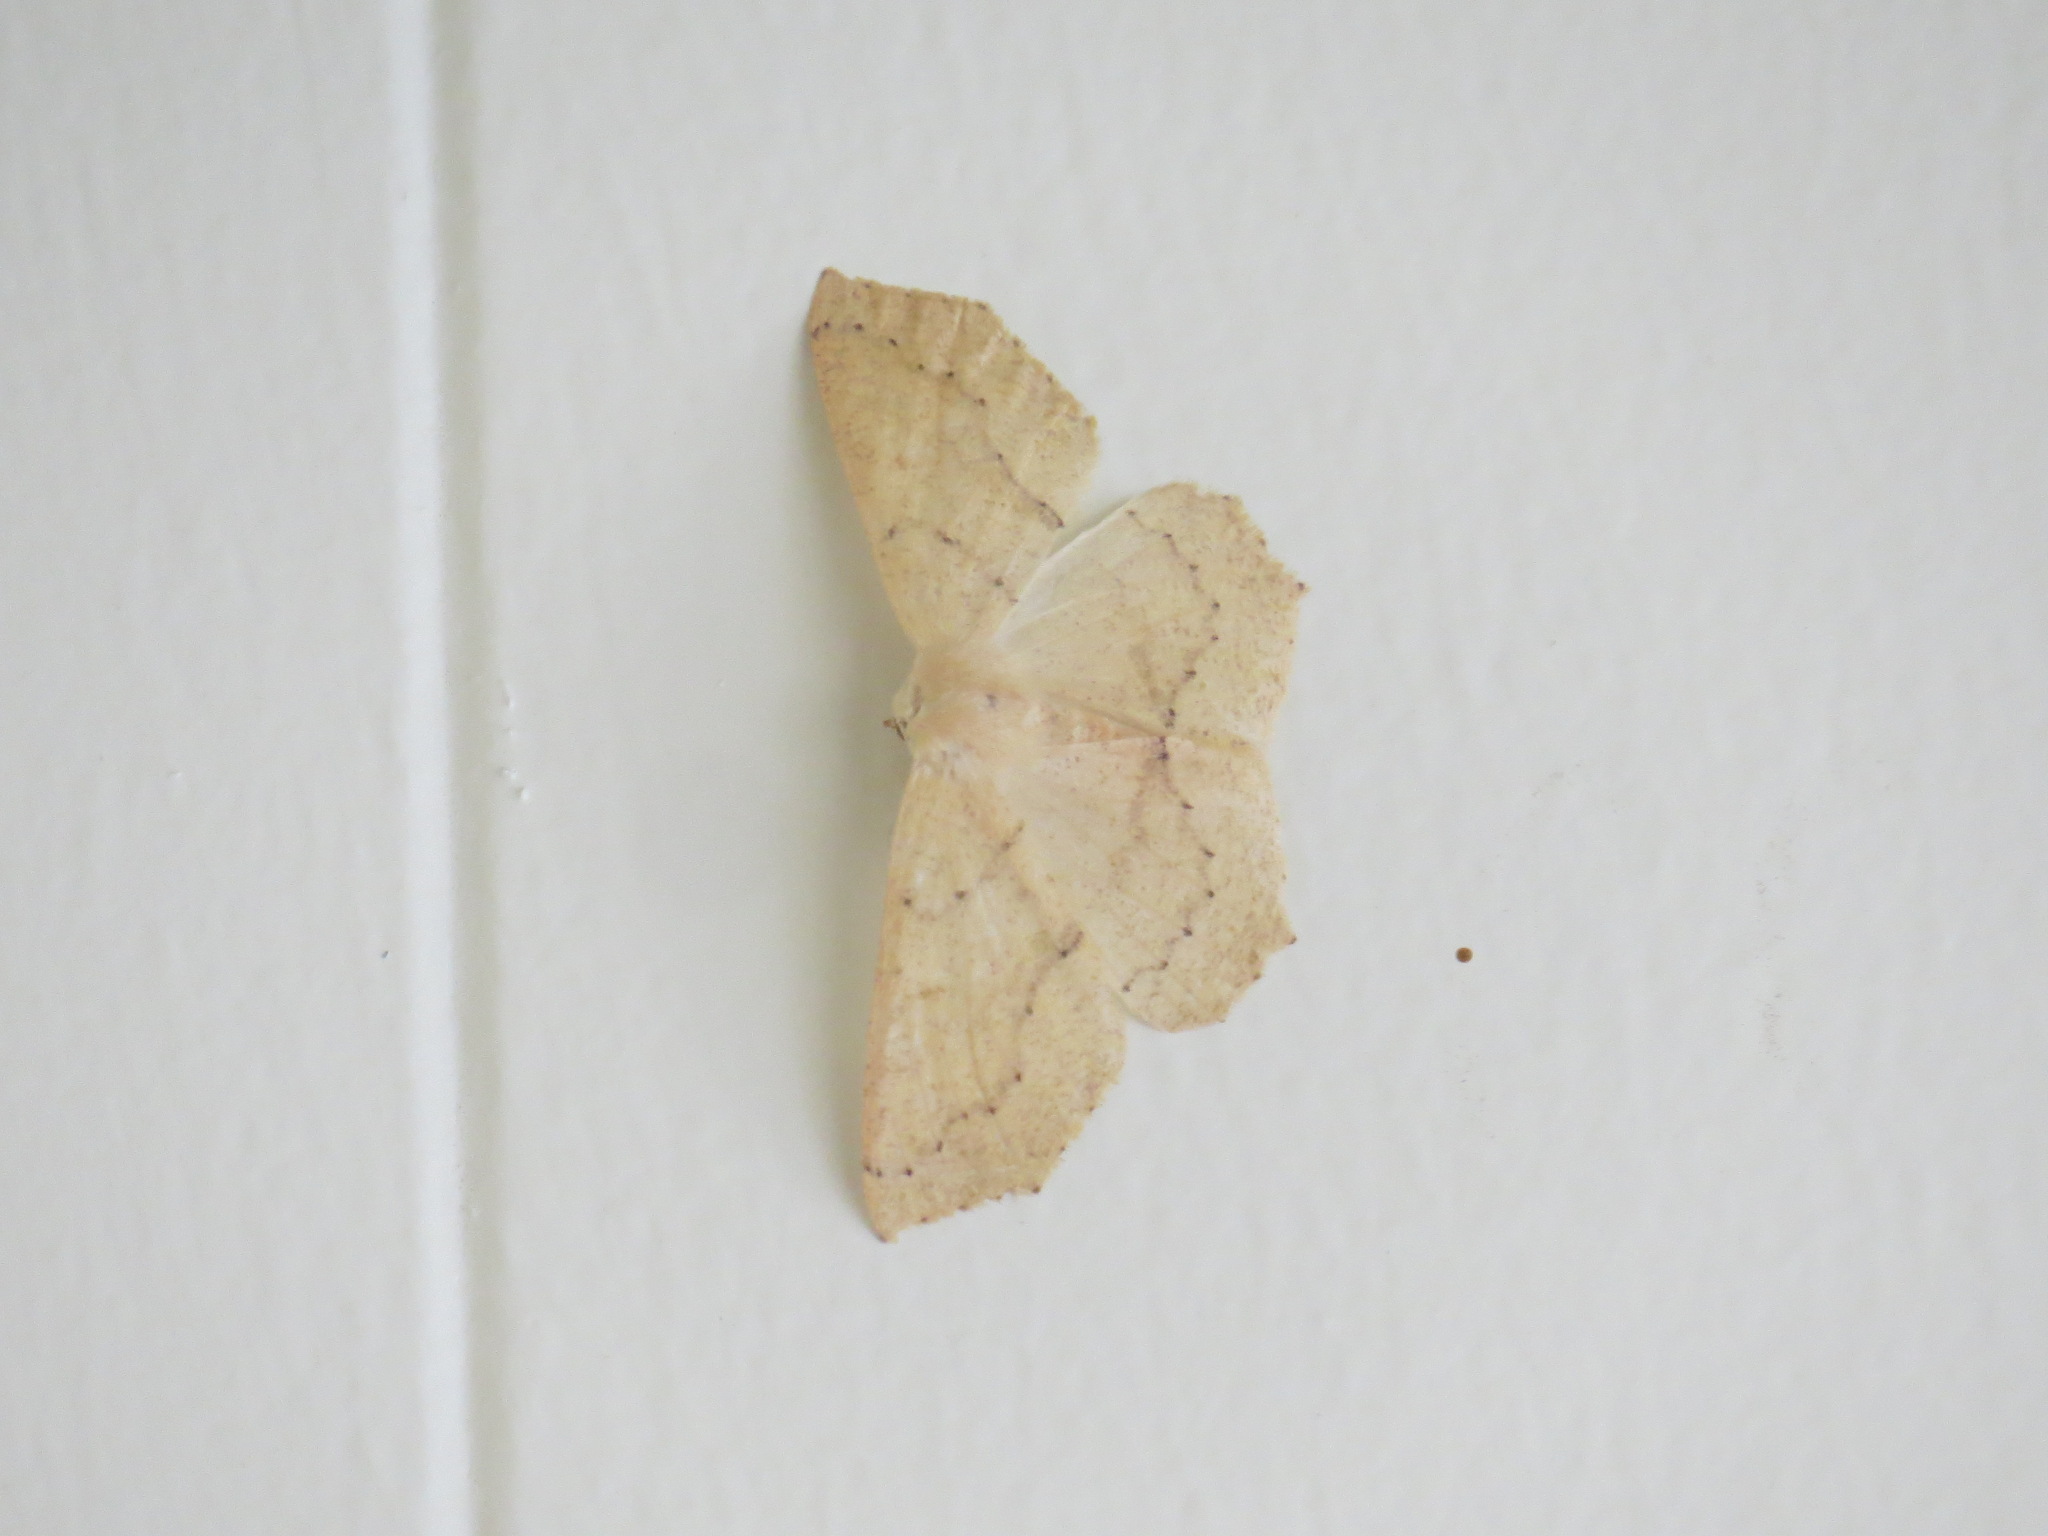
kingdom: Animalia
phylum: Arthropoda
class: Insecta
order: Lepidoptera
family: Geometridae
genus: Sabulodes
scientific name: Sabulodes aegrotata
